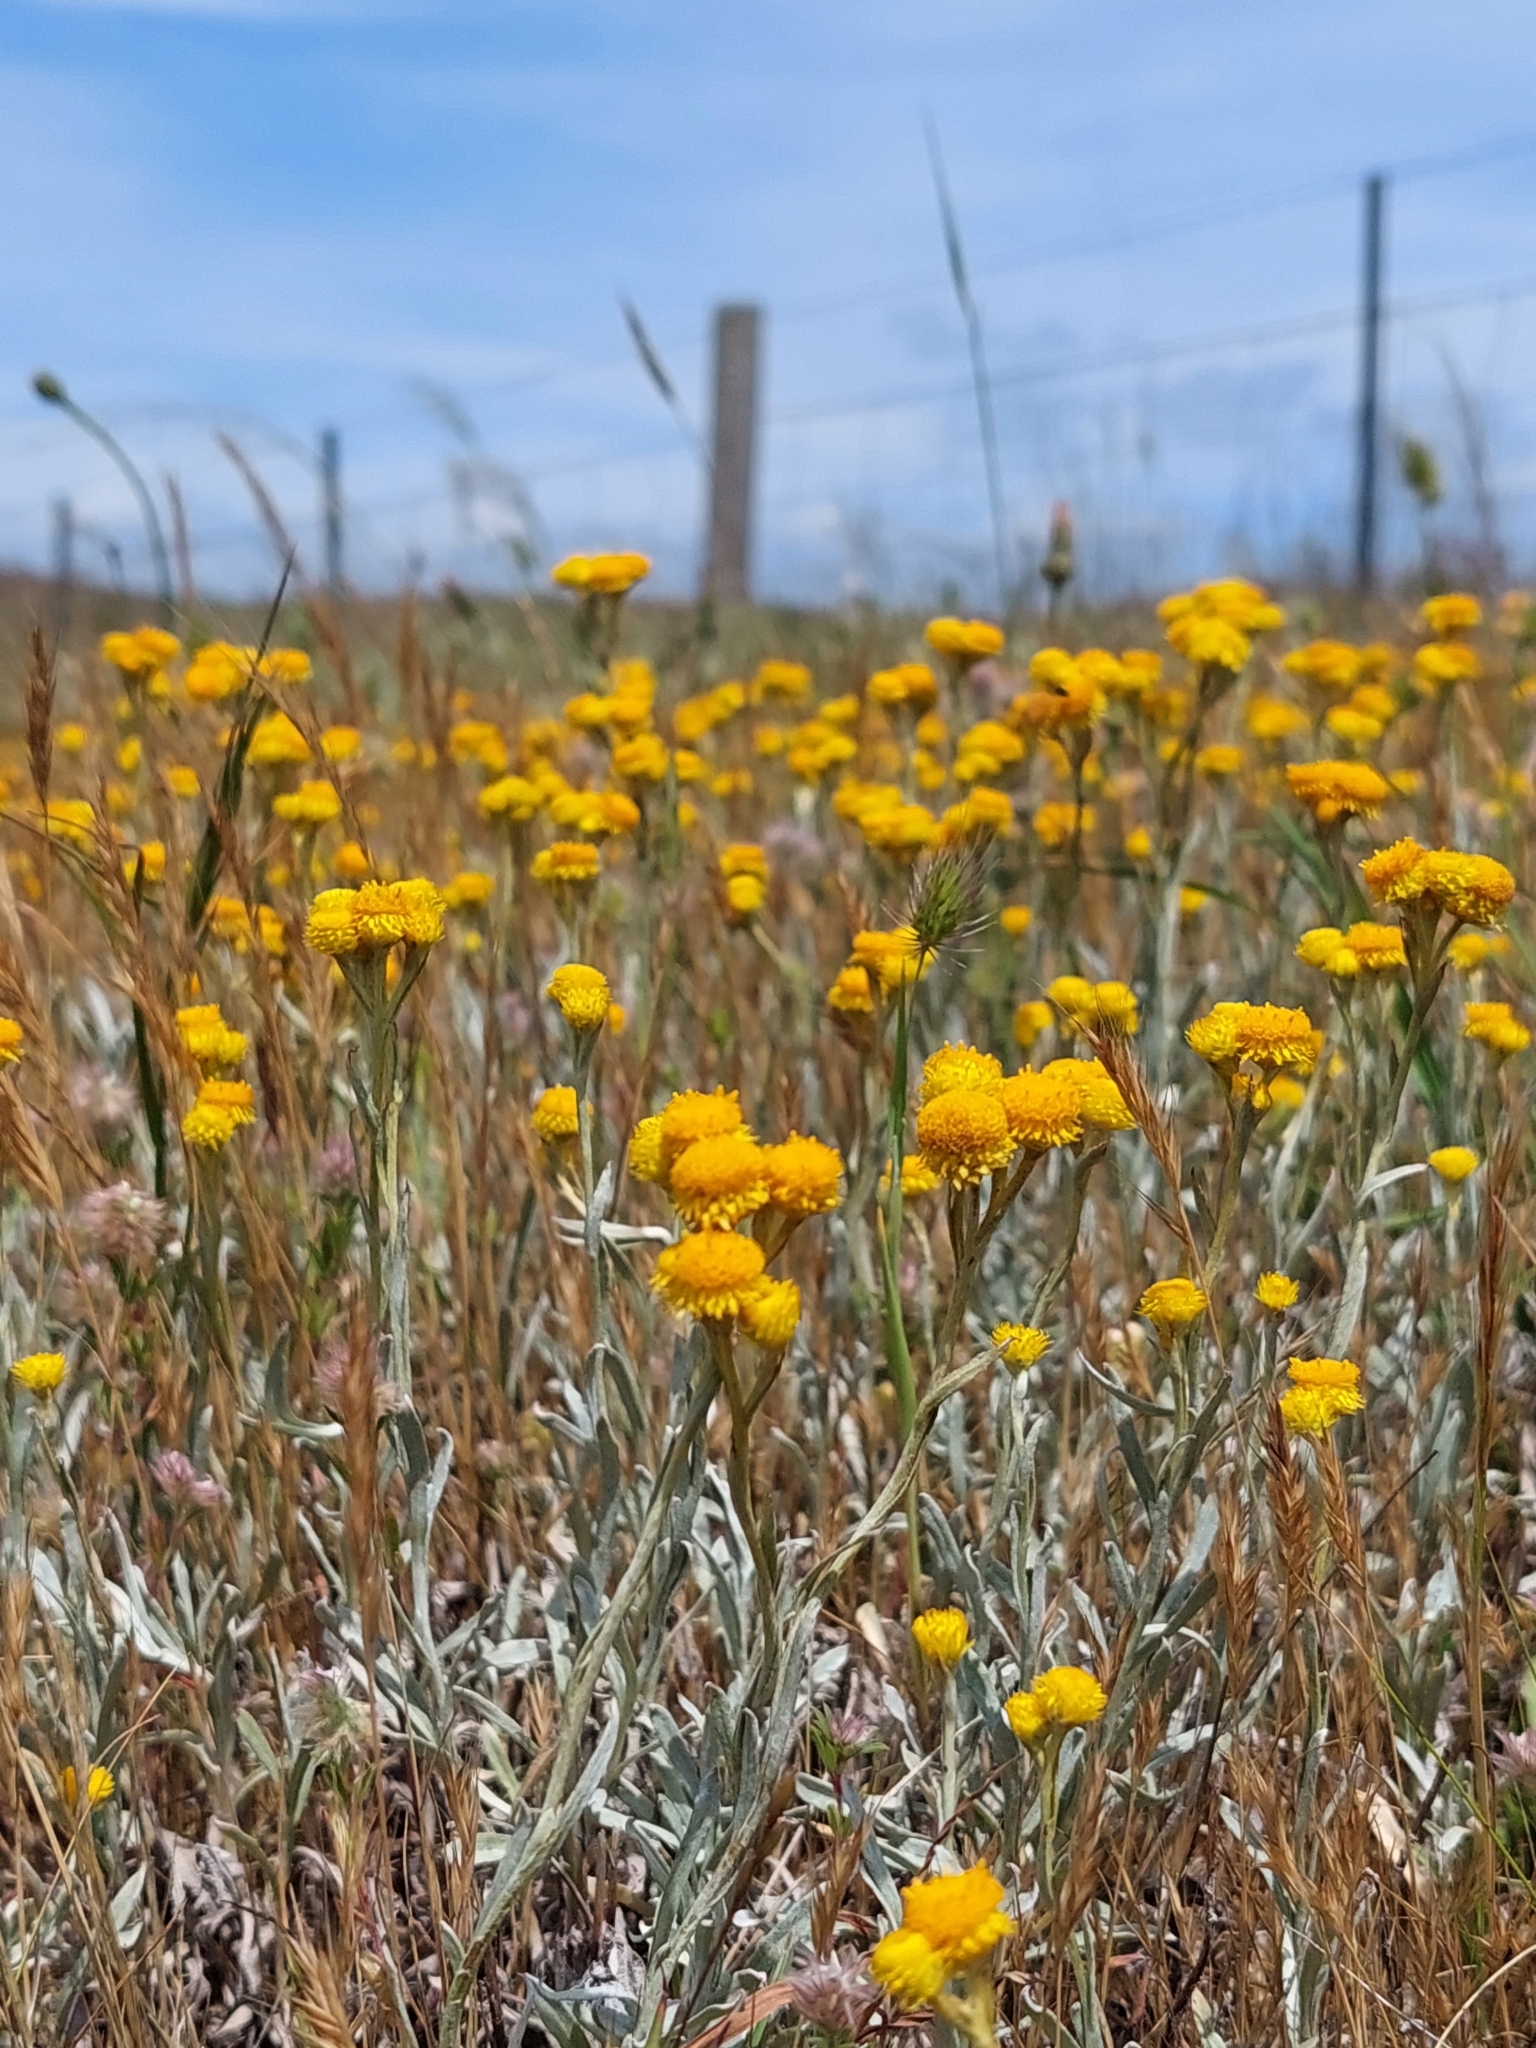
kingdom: Plantae
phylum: Tracheophyta
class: Magnoliopsida
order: Asterales
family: Asteraceae
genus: Chrysocephalum
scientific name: Chrysocephalum apiculatum
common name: Common everlasting
